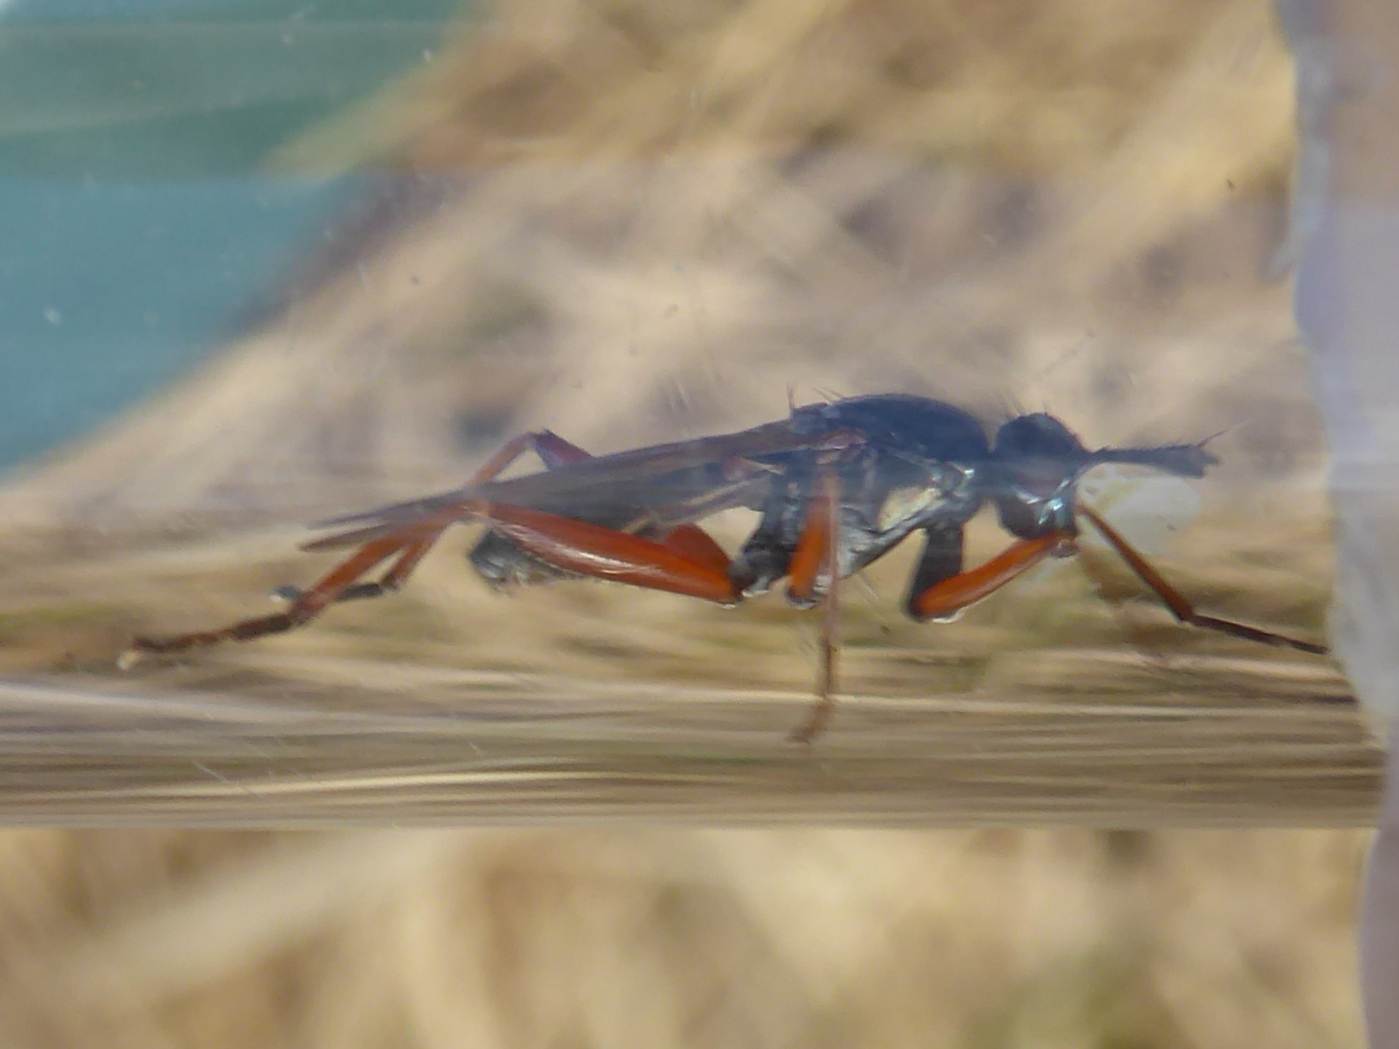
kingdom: Animalia
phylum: Arthropoda
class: Insecta
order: Diptera
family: Sciomyzidae
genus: Sepedon
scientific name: Sepedon sphegea
